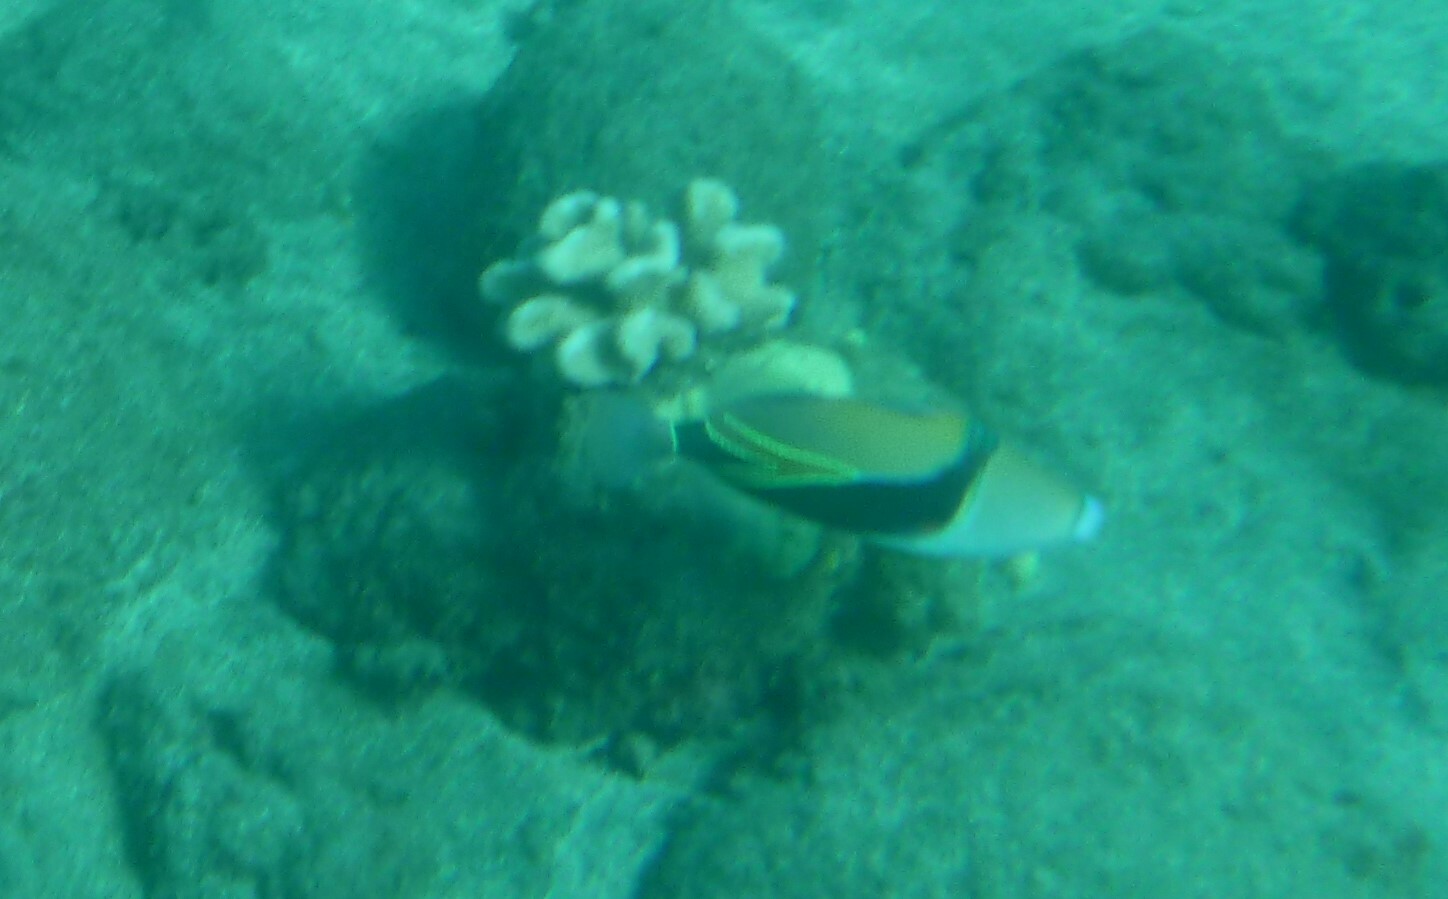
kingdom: Animalia
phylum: Chordata
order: Tetraodontiformes
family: Balistidae
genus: Rhinecanthus
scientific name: Rhinecanthus rectangulus
